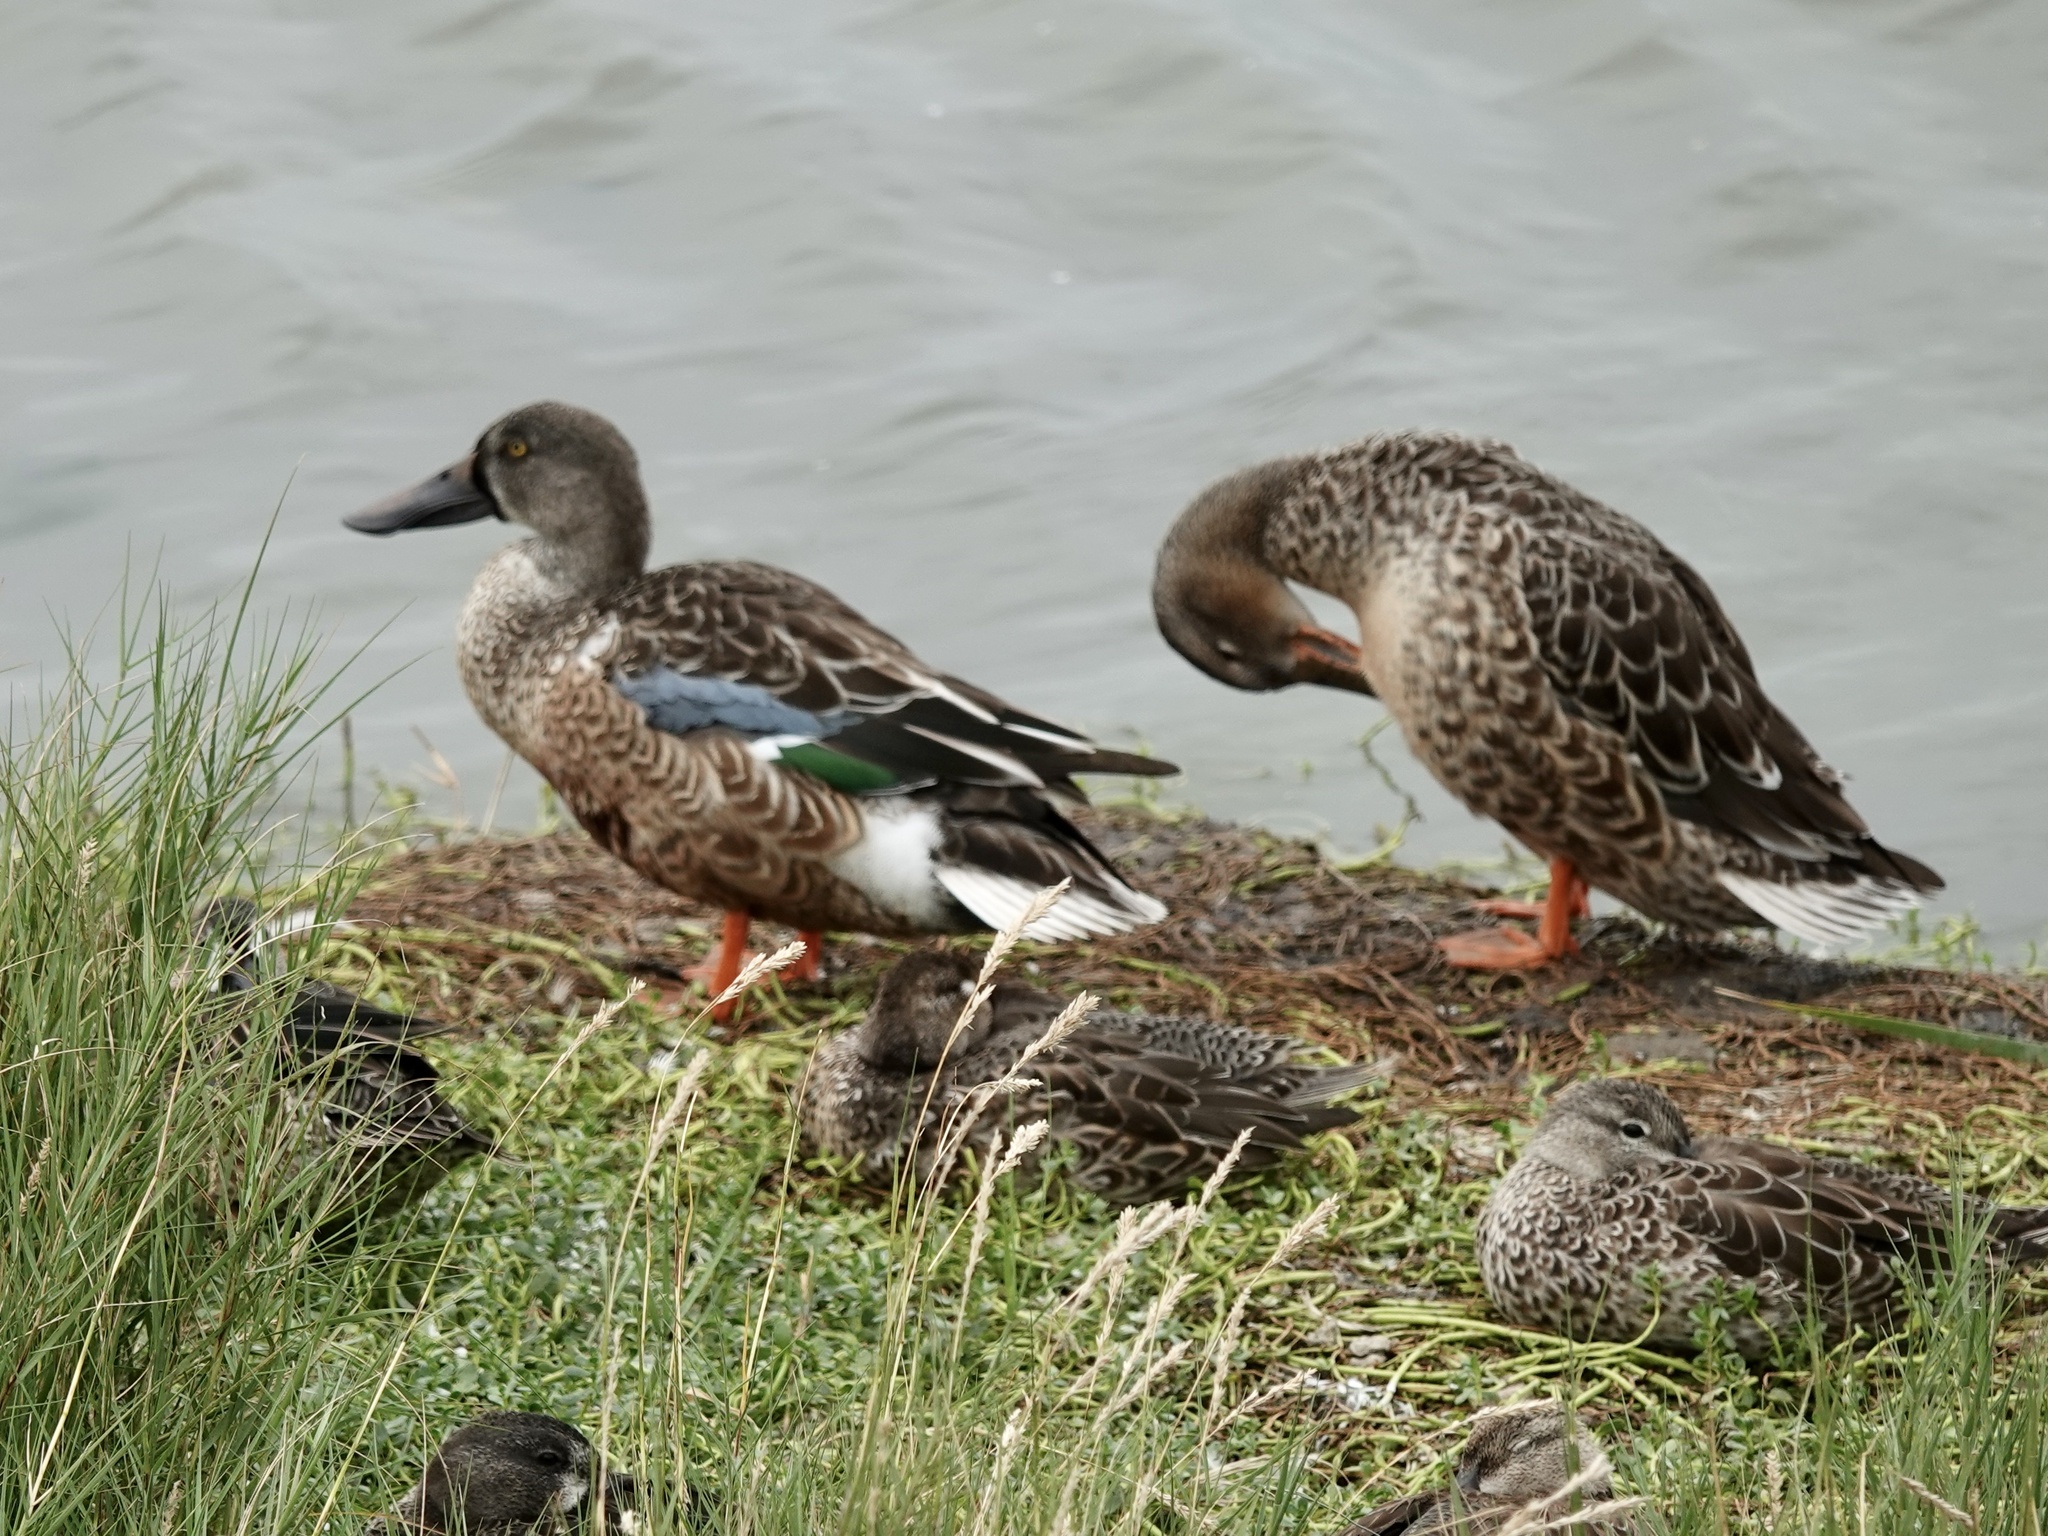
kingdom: Animalia
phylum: Chordata
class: Aves
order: Anseriformes
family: Anatidae
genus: Spatula
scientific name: Spatula clypeata
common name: Northern shoveler
